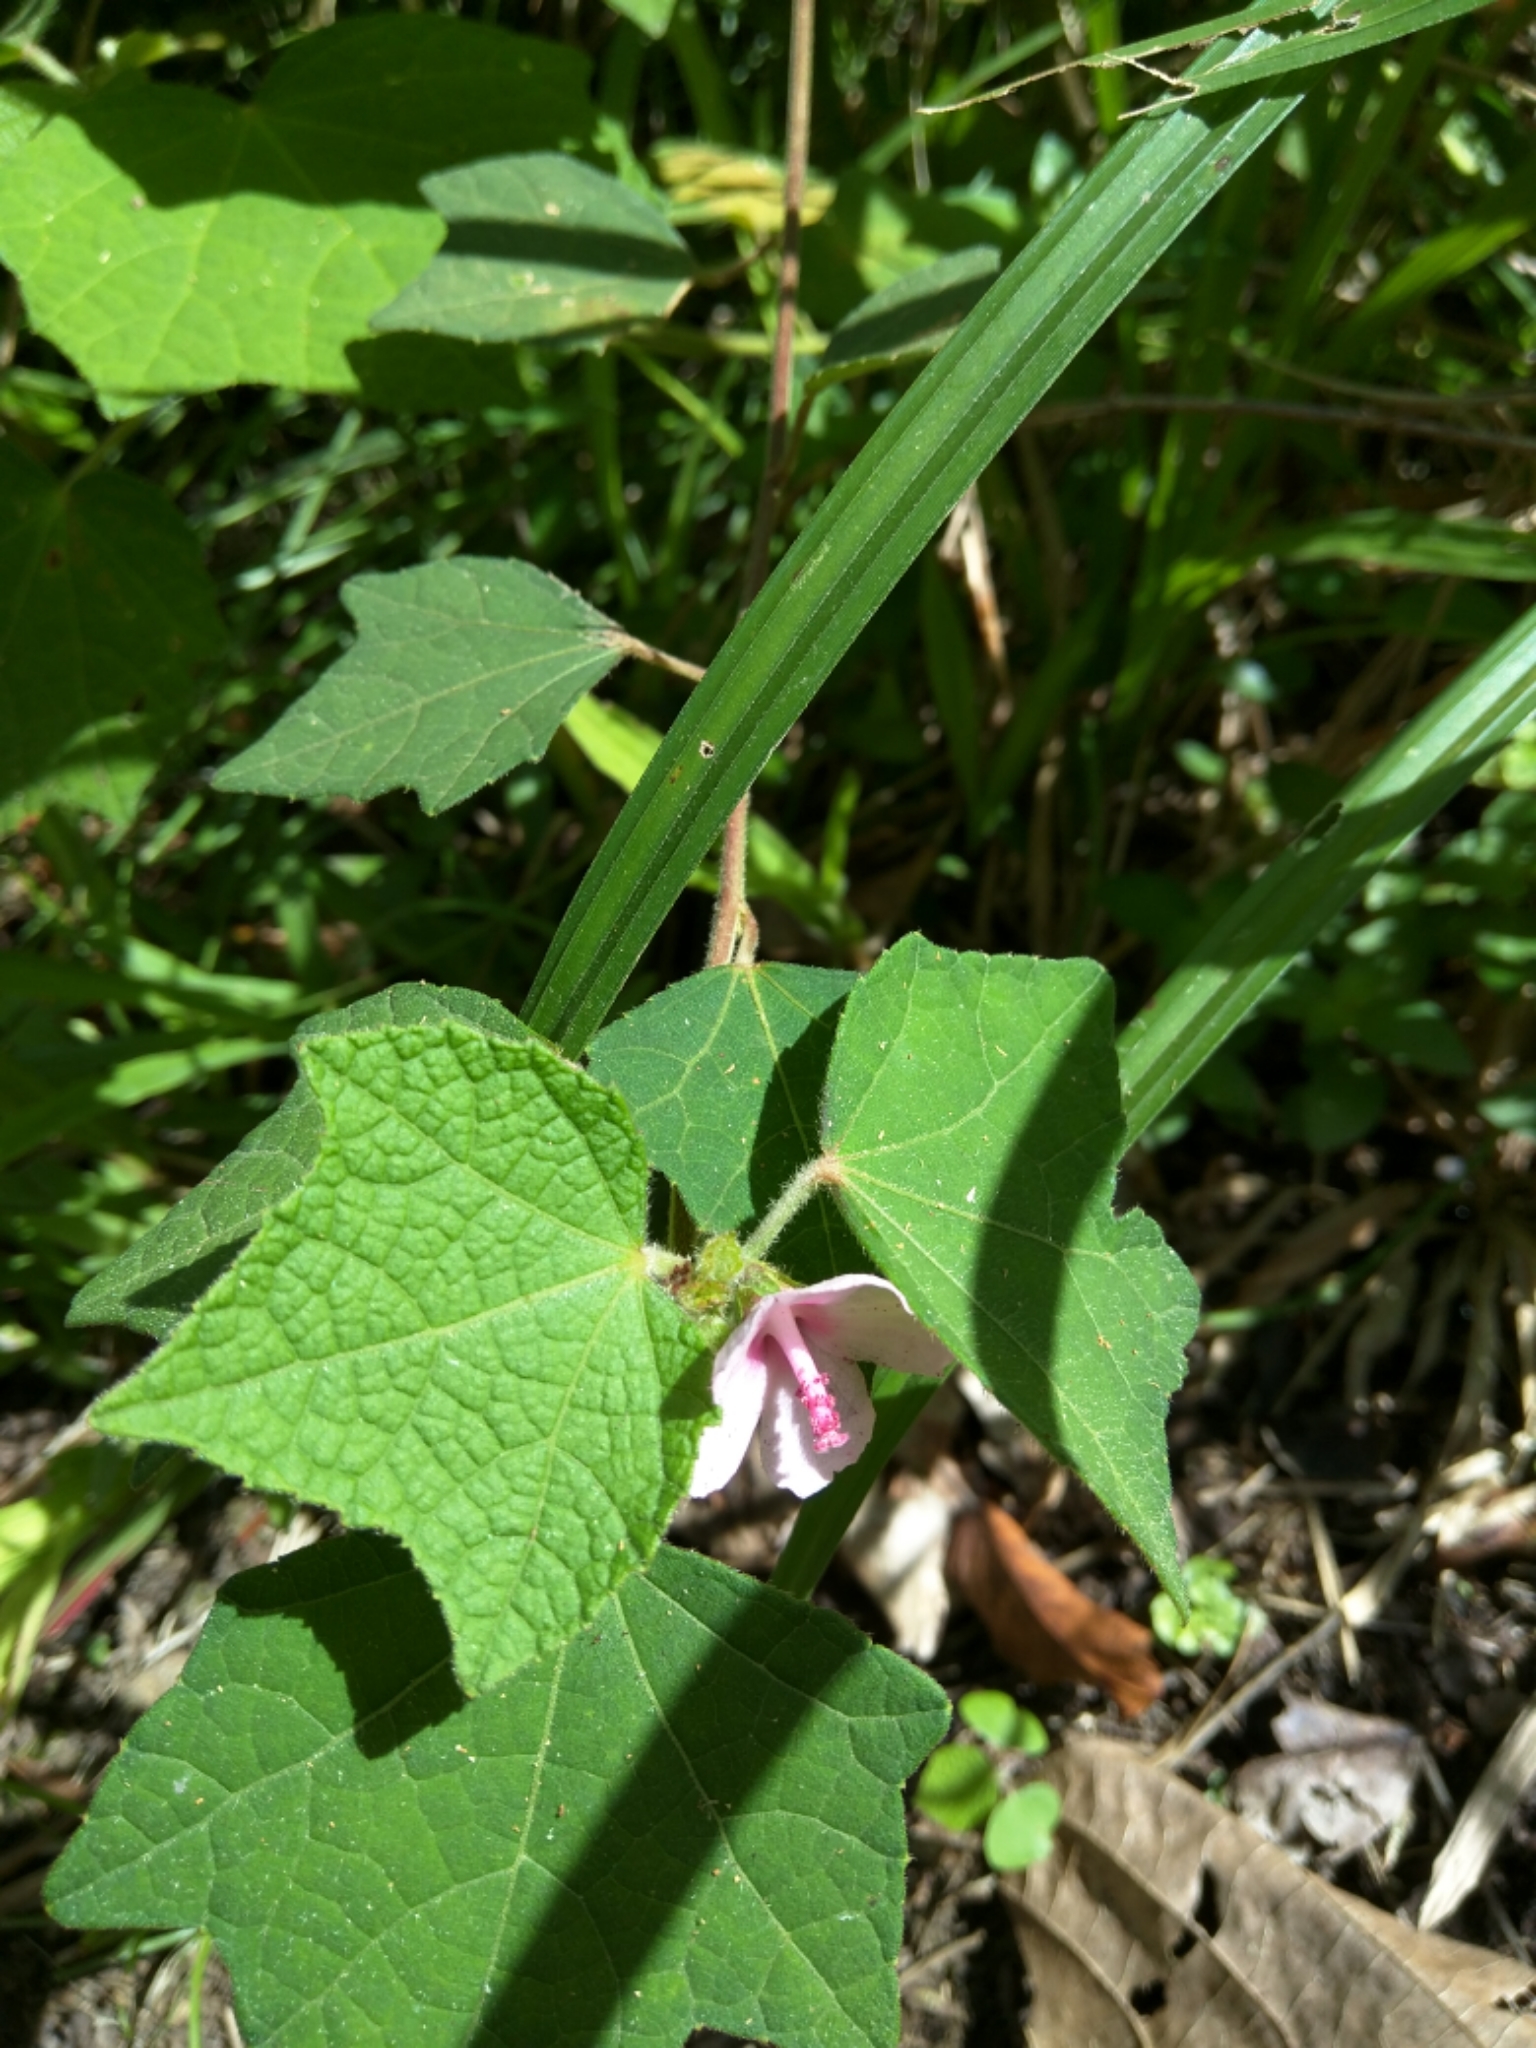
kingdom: Plantae
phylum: Tracheophyta
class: Magnoliopsida
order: Malvales
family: Malvaceae
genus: Urena
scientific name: Urena lobata
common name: Caesarweed
